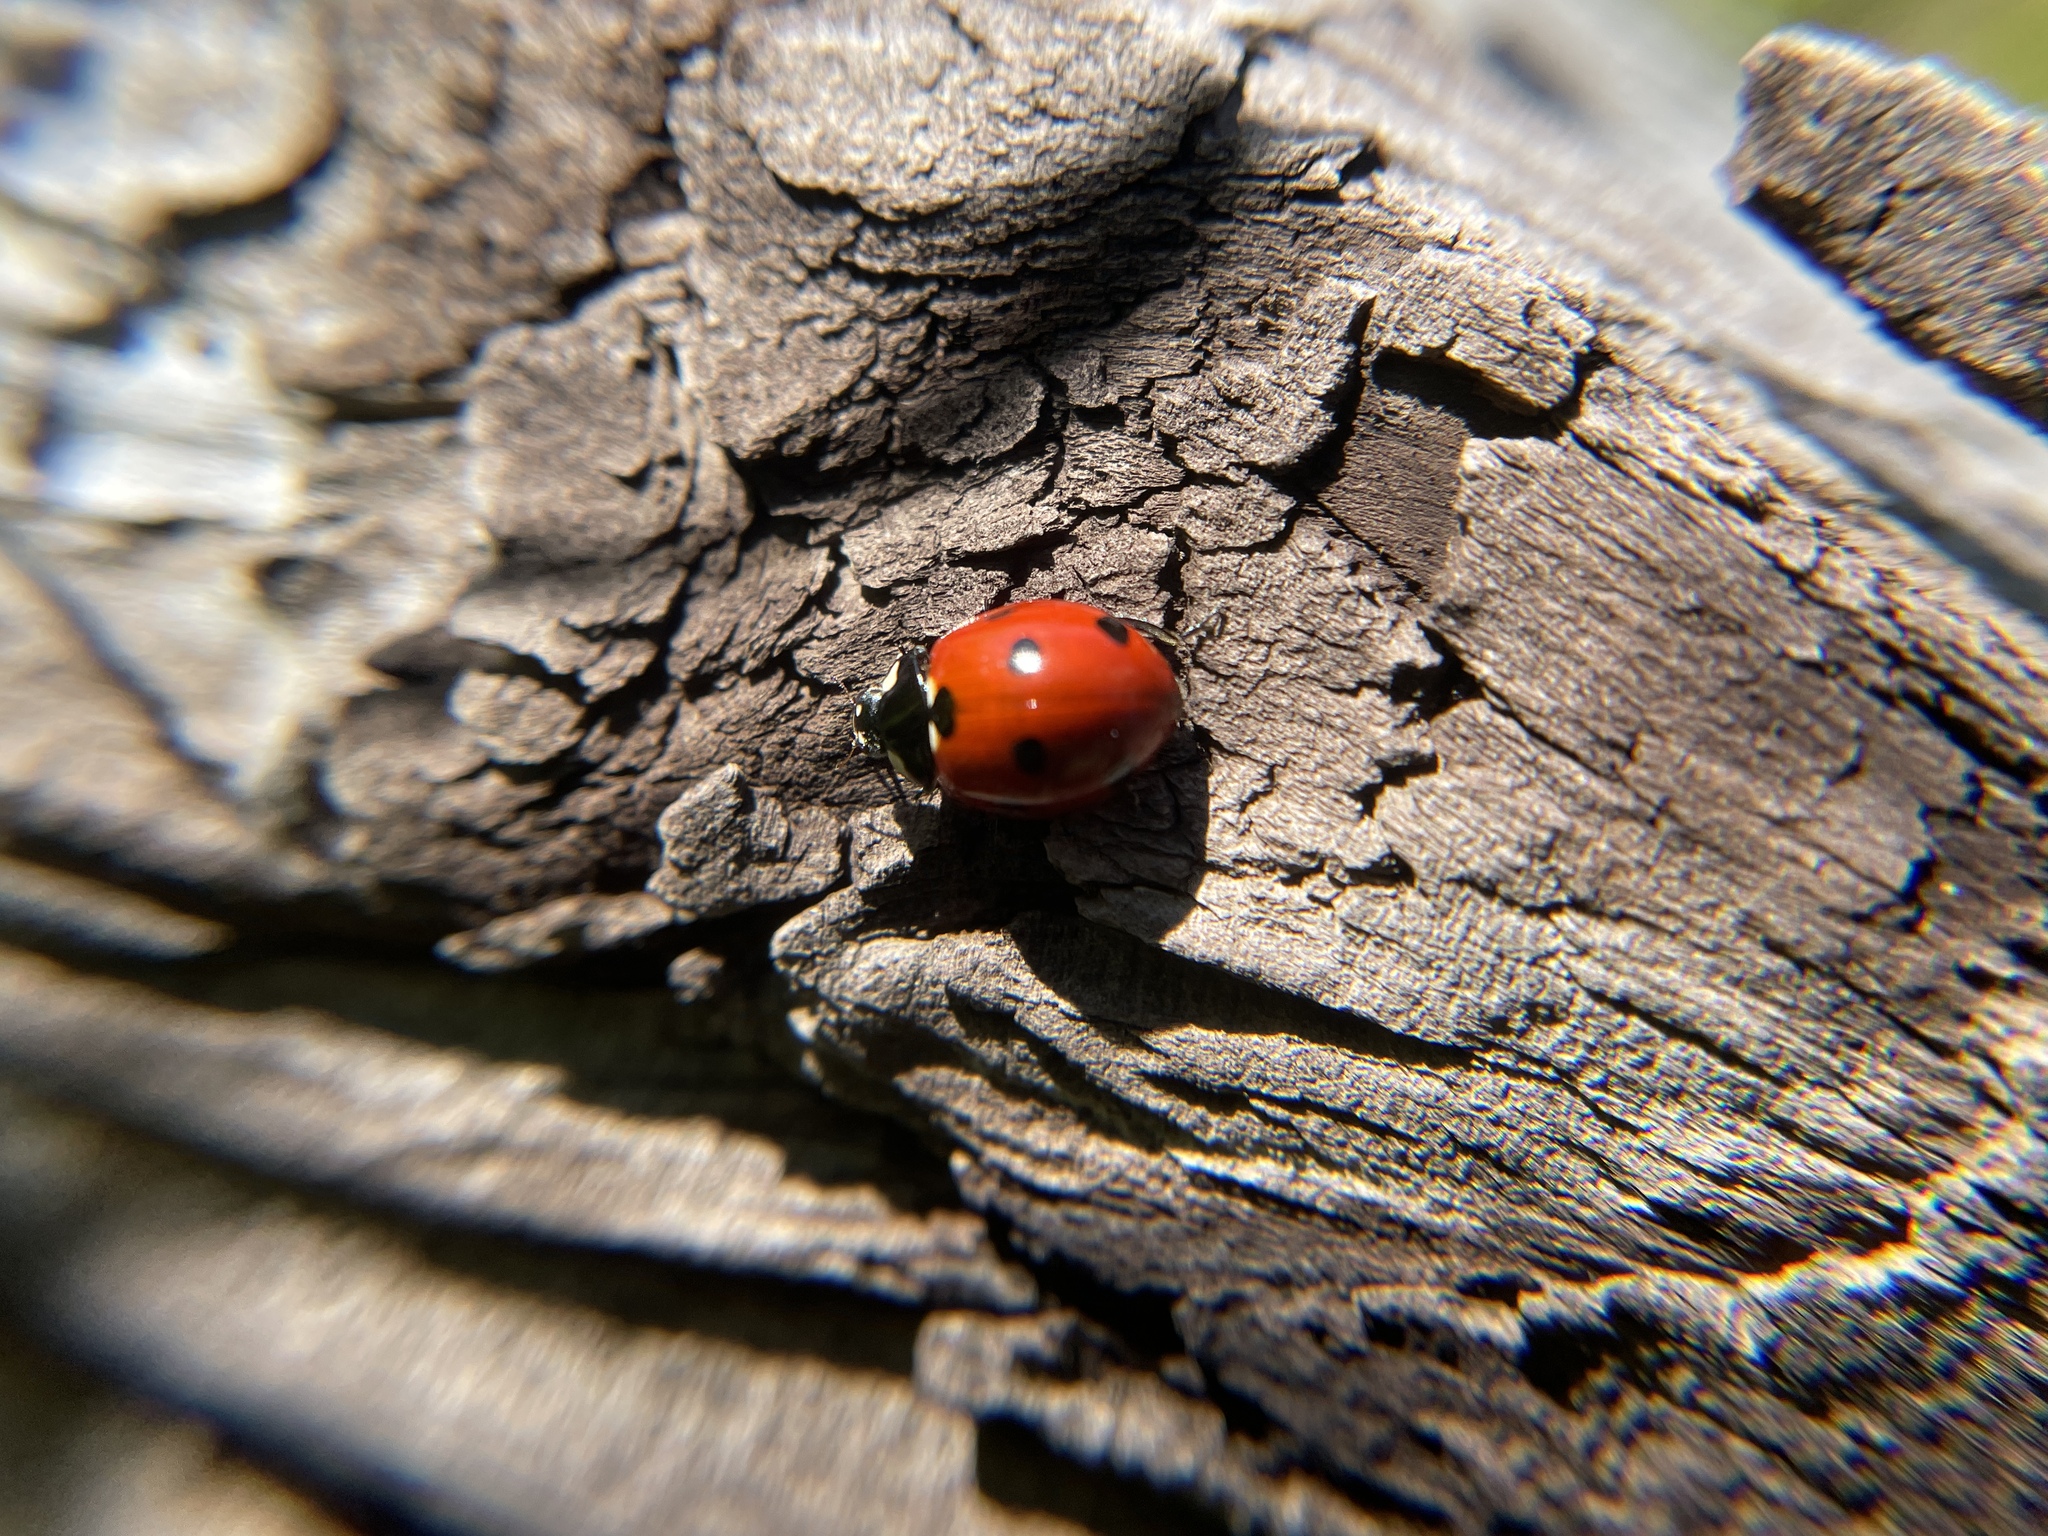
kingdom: Animalia
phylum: Arthropoda
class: Insecta
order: Coleoptera
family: Coccinellidae
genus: Coccinella
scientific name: Coccinella septempunctata
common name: Sevenspotted lady beetle
